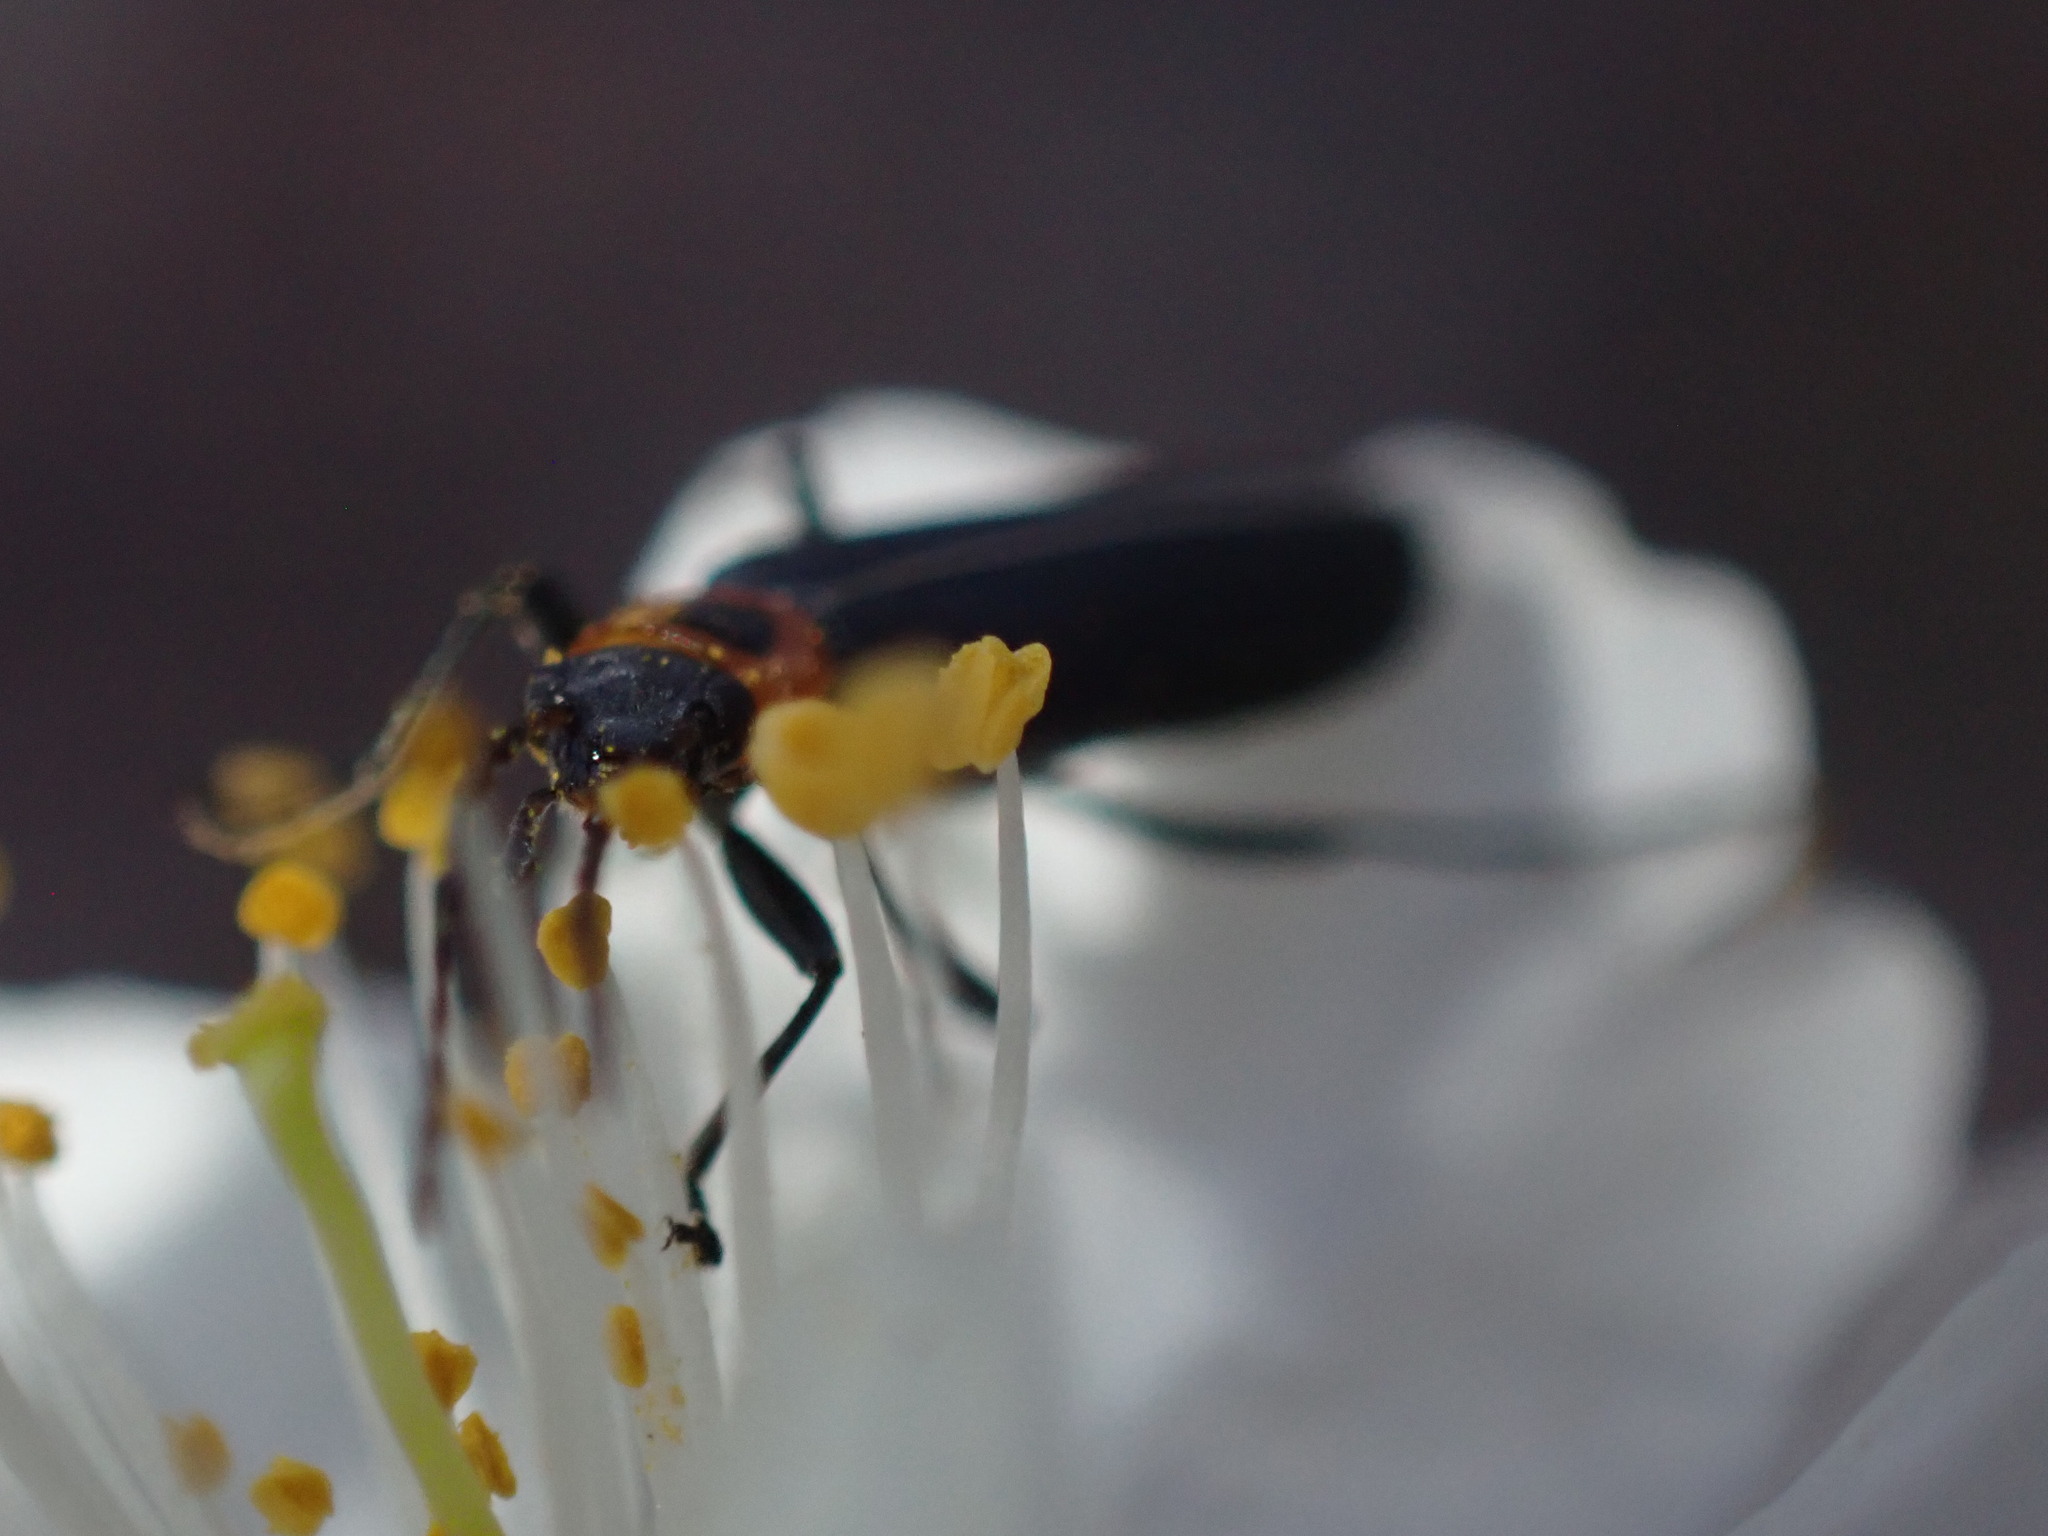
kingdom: Animalia
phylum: Arthropoda
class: Insecta
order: Coleoptera
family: Oedemeridae
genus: Ischnomera
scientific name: Ischnomera
